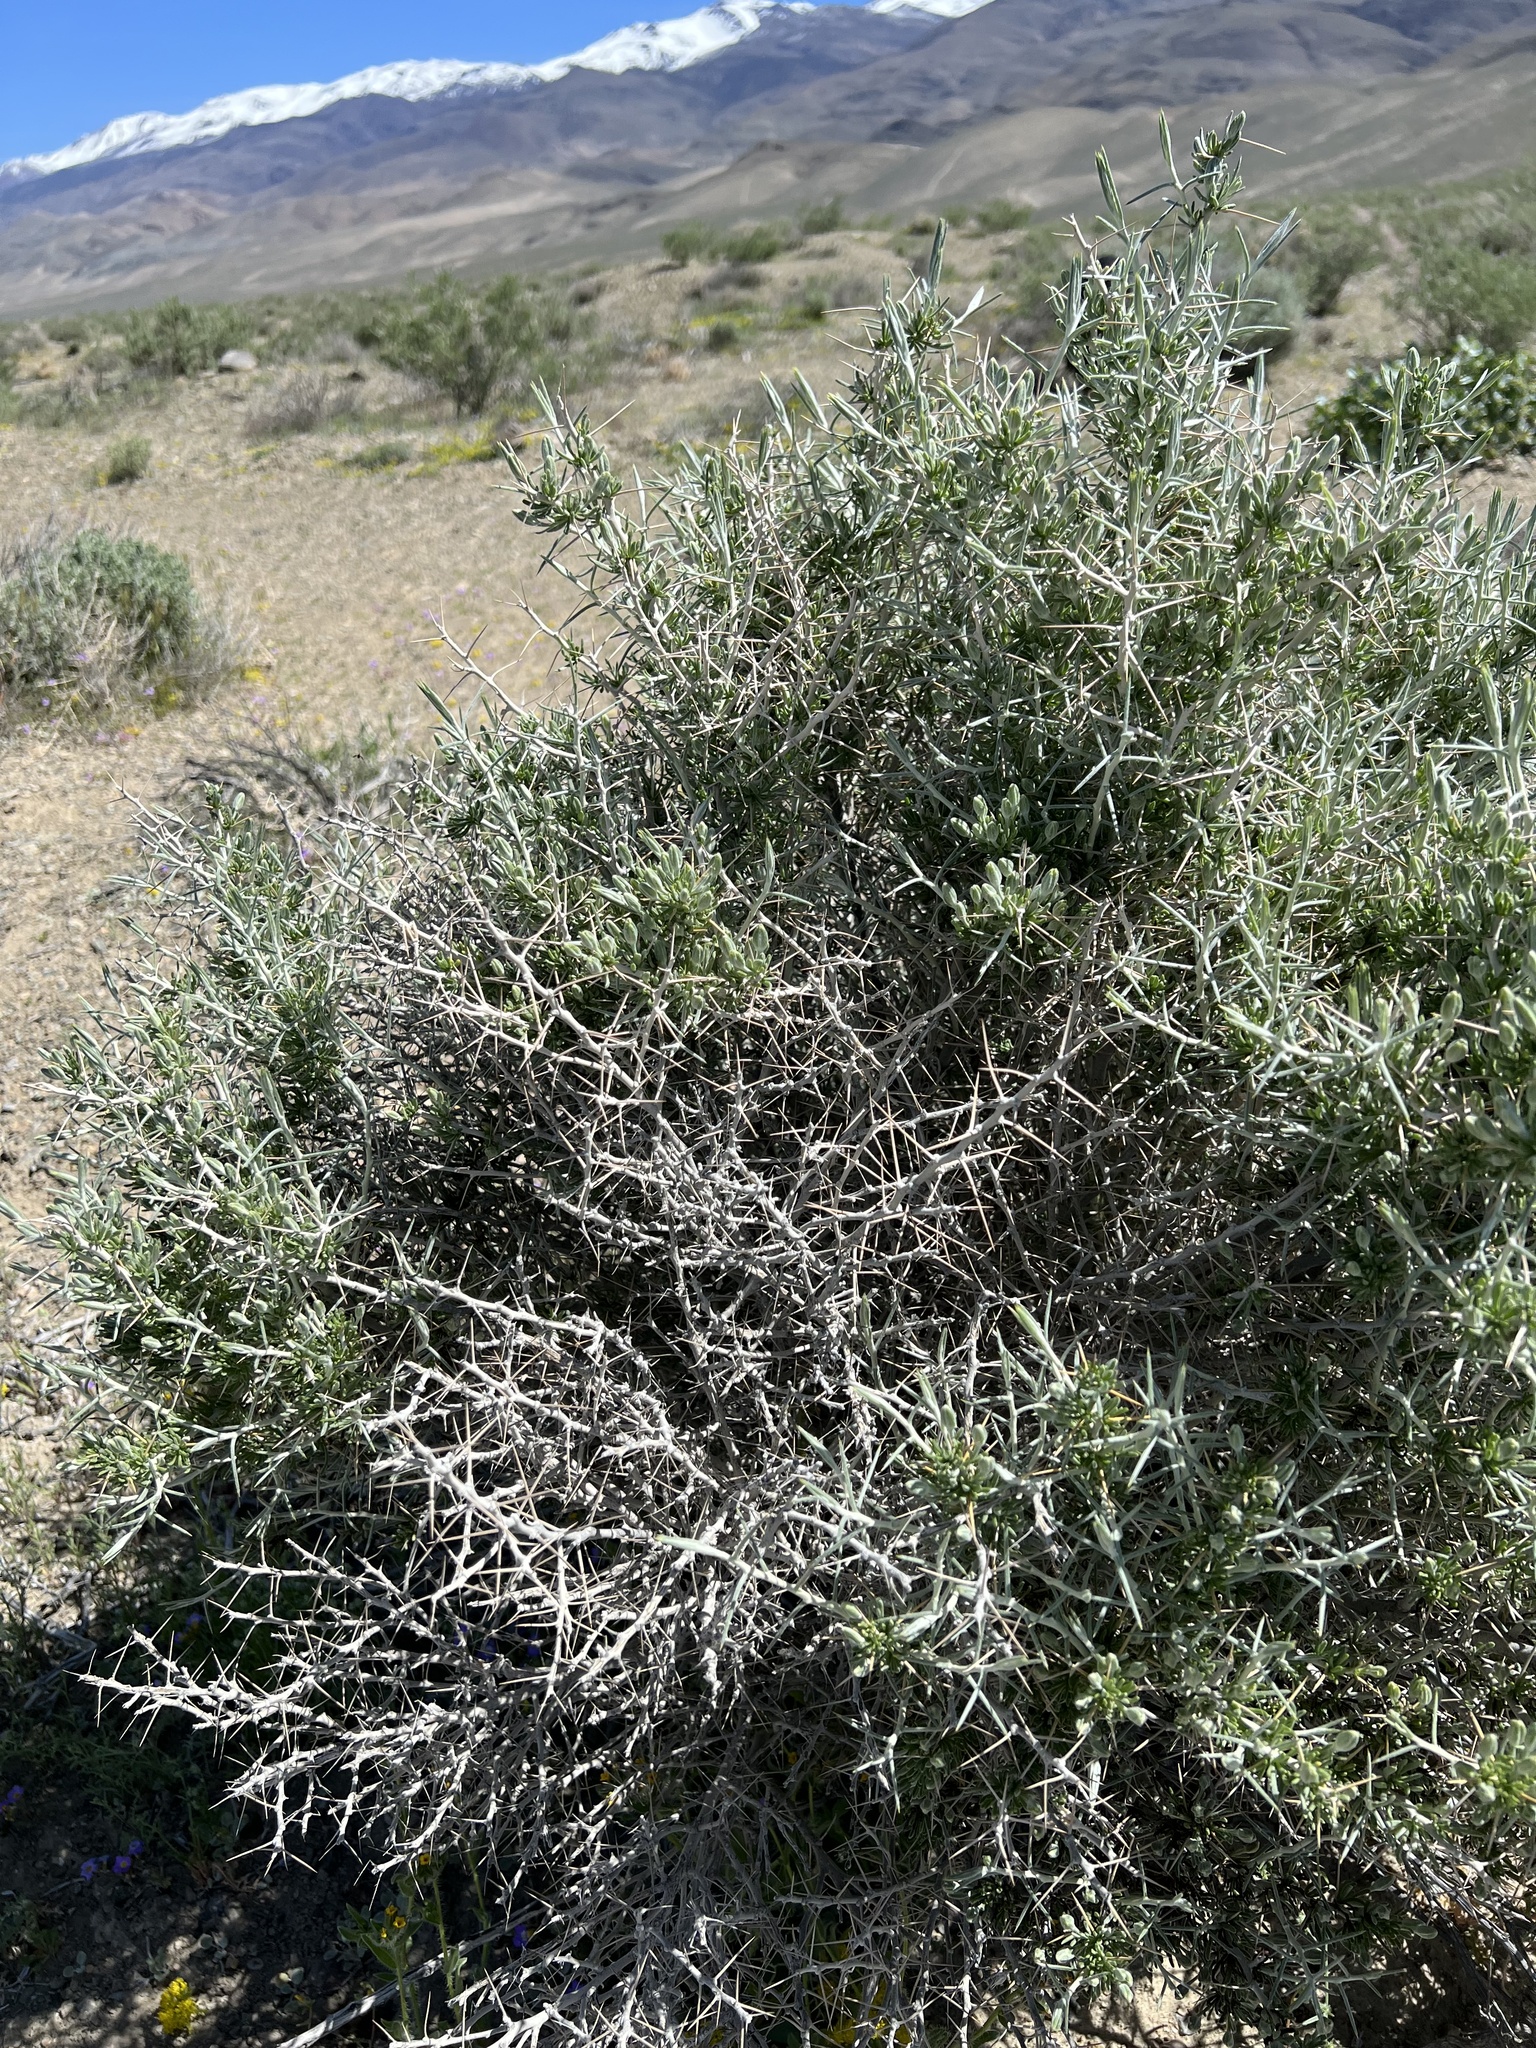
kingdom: Plantae
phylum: Tracheophyta
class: Magnoliopsida
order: Asterales
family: Asteraceae
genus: Tetradymia
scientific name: Tetradymia axillaris
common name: Long-spine horsebrush
